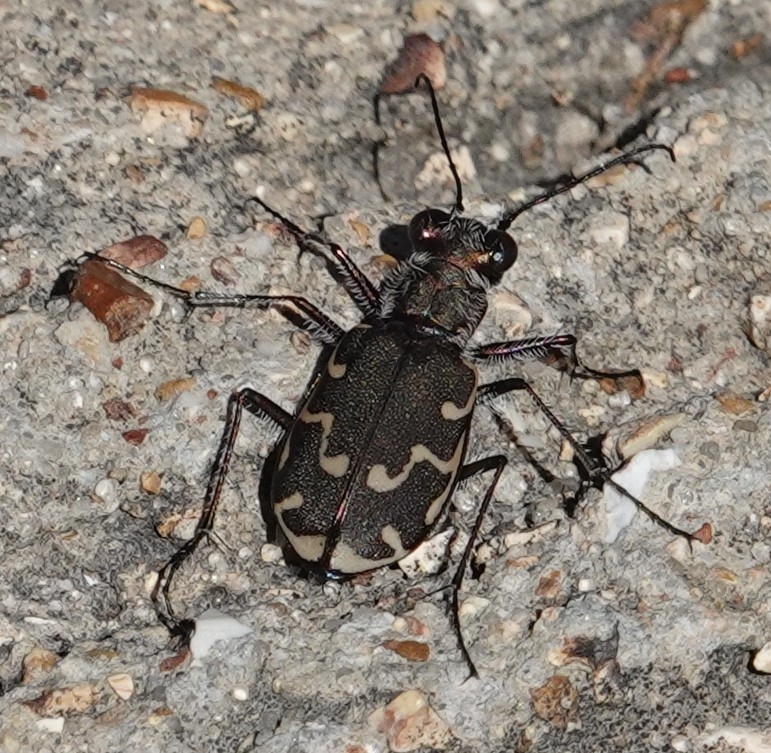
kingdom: Animalia
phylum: Arthropoda
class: Insecta
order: Coleoptera
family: Carabidae
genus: Cicindela
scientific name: Cicindela repanda
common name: Bronzed tiger beetle
